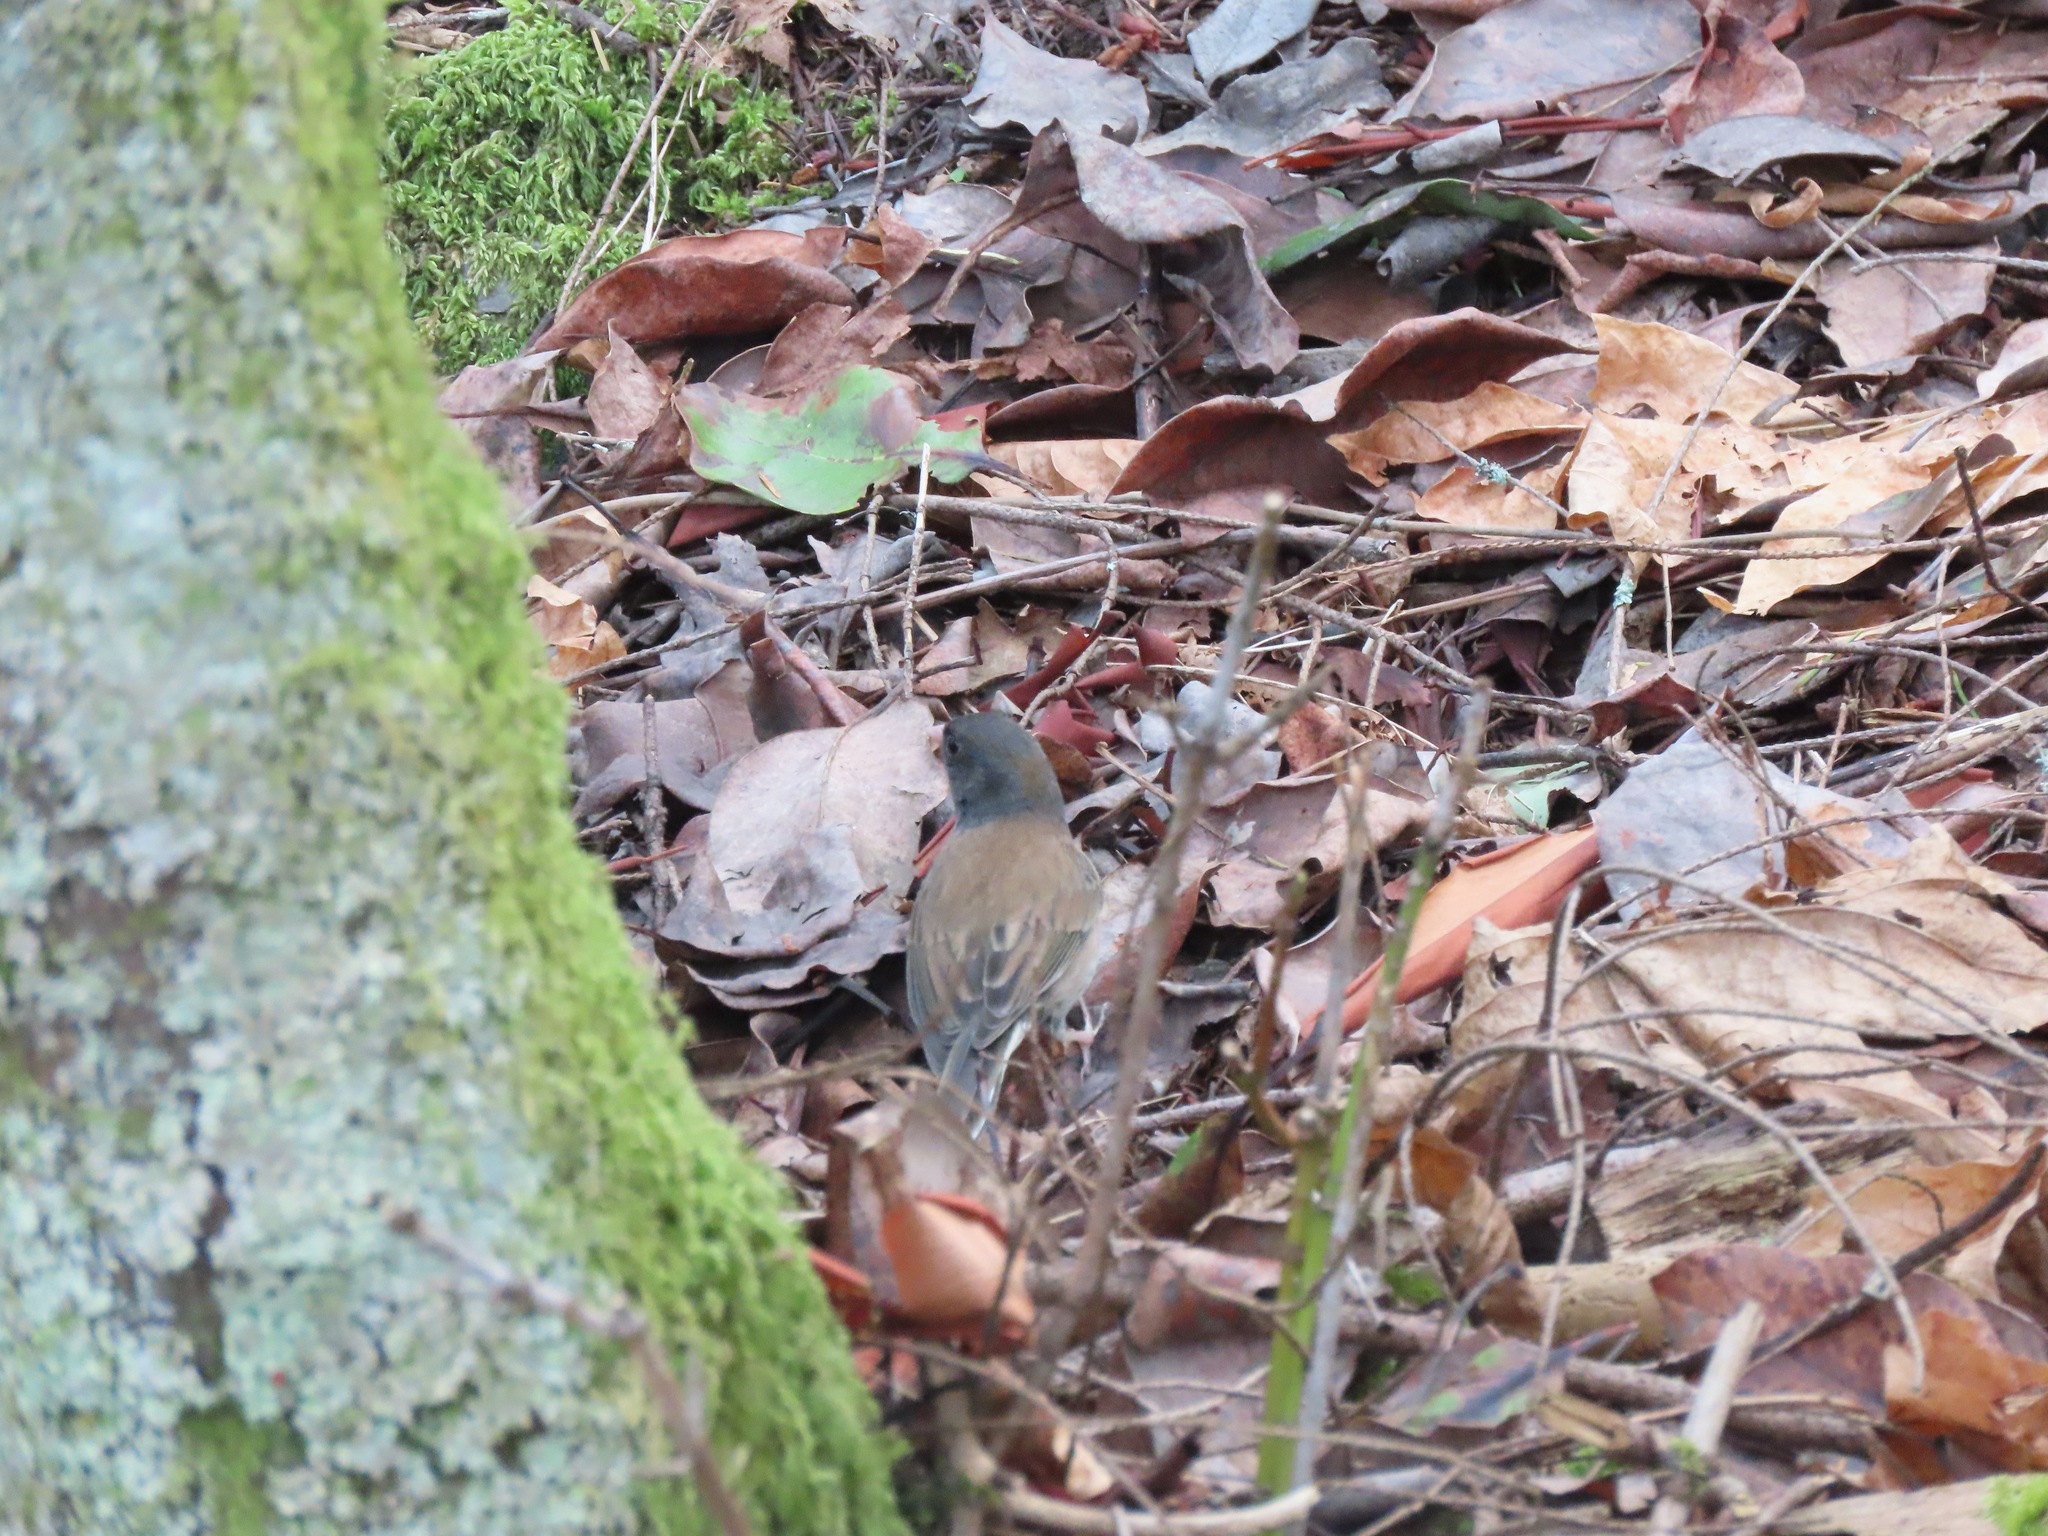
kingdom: Animalia
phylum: Chordata
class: Aves
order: Passeriformes
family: Passerellidae
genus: Junco
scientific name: Junco hyemalis
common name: Dark-eyed junco
